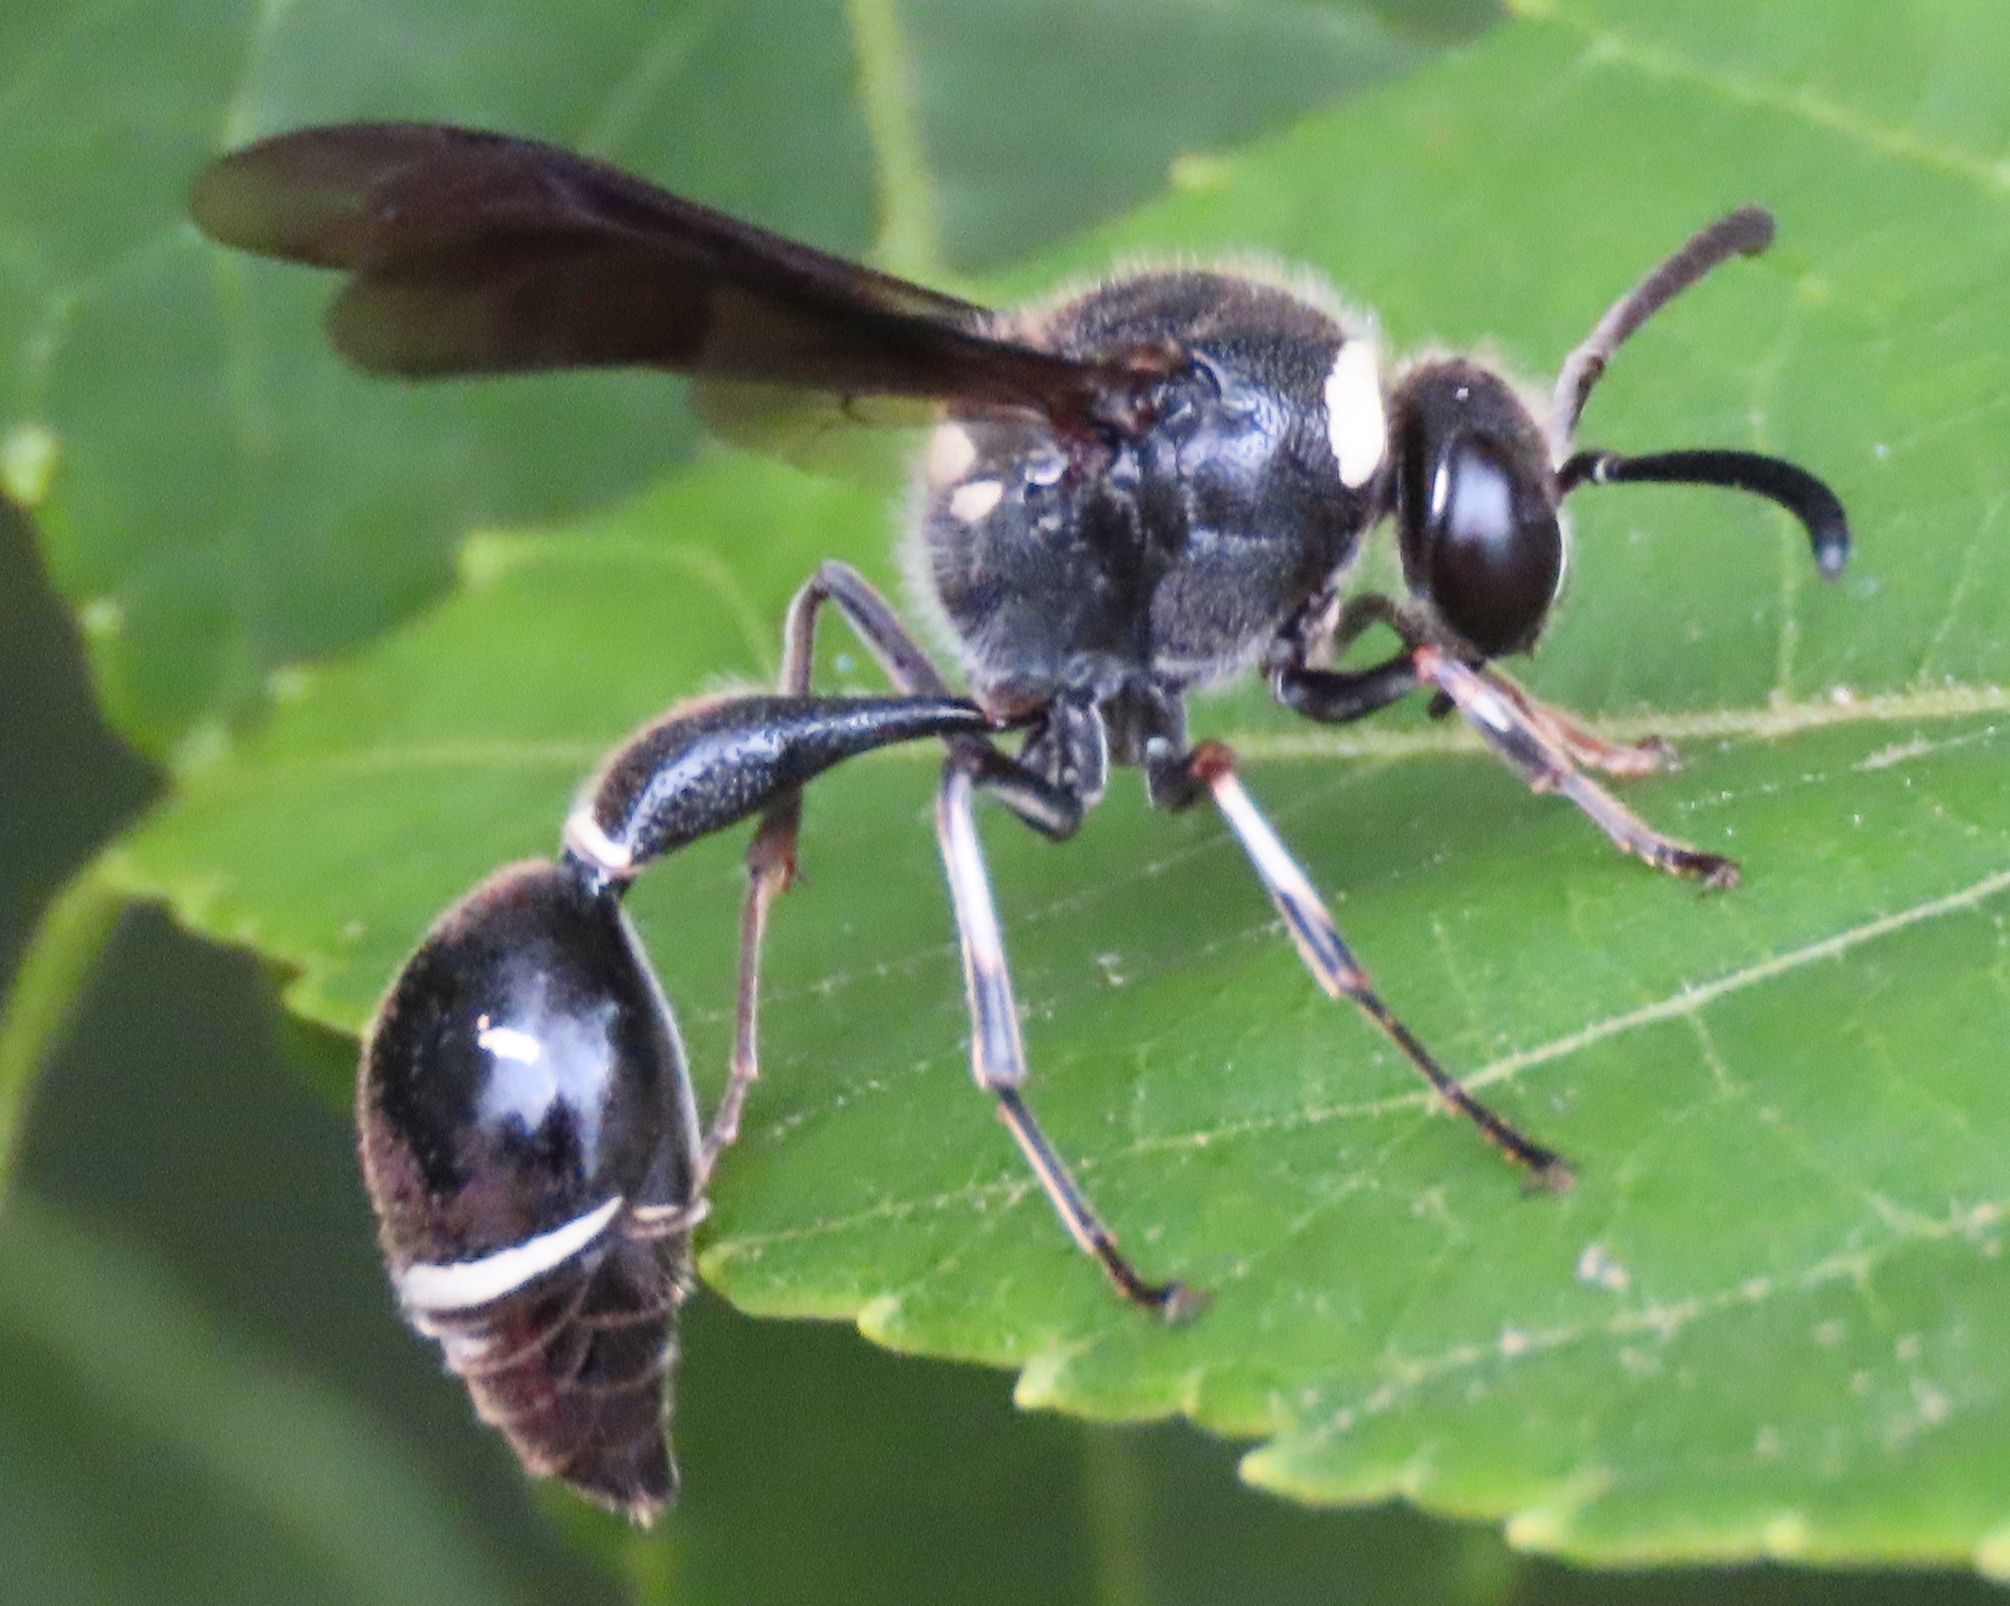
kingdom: Animalia
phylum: Arthropoda
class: Insecta
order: Hymenoptera
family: Vespidae
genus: Eumenes
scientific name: Eumenes fraternus
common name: Fraternal potter wasp
